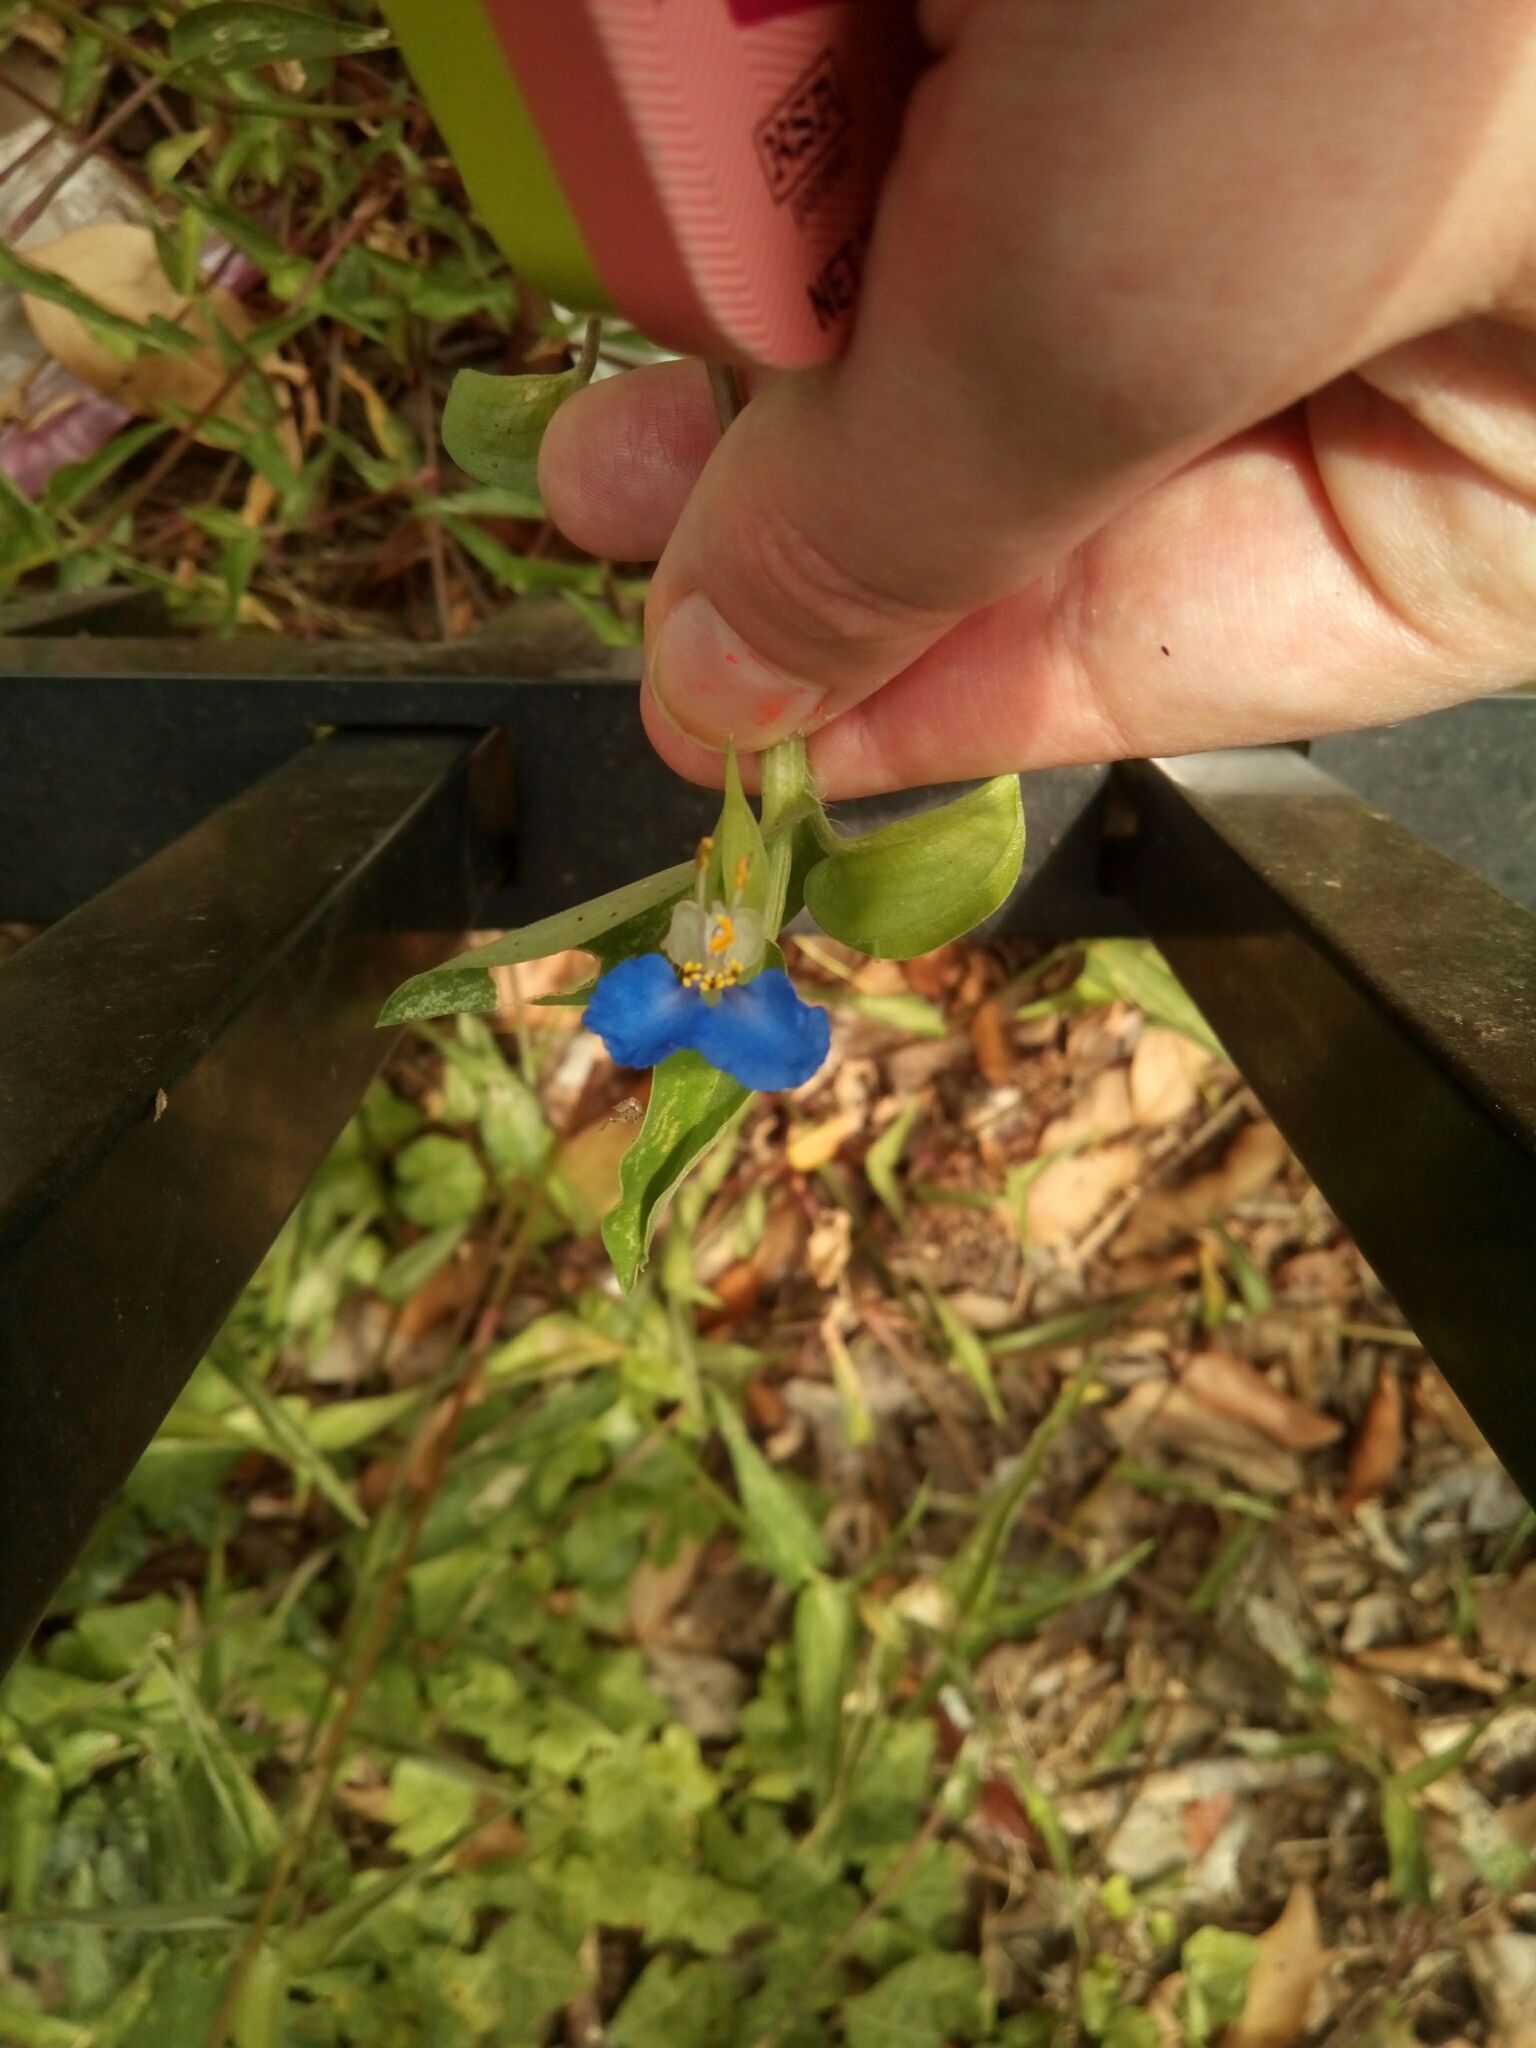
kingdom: Plantae
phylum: Tracheophyta
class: Liliopsida
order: Commelinales
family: Commelinaceae
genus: Commelina
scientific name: Commelina communis
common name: Asiatic dayflower
